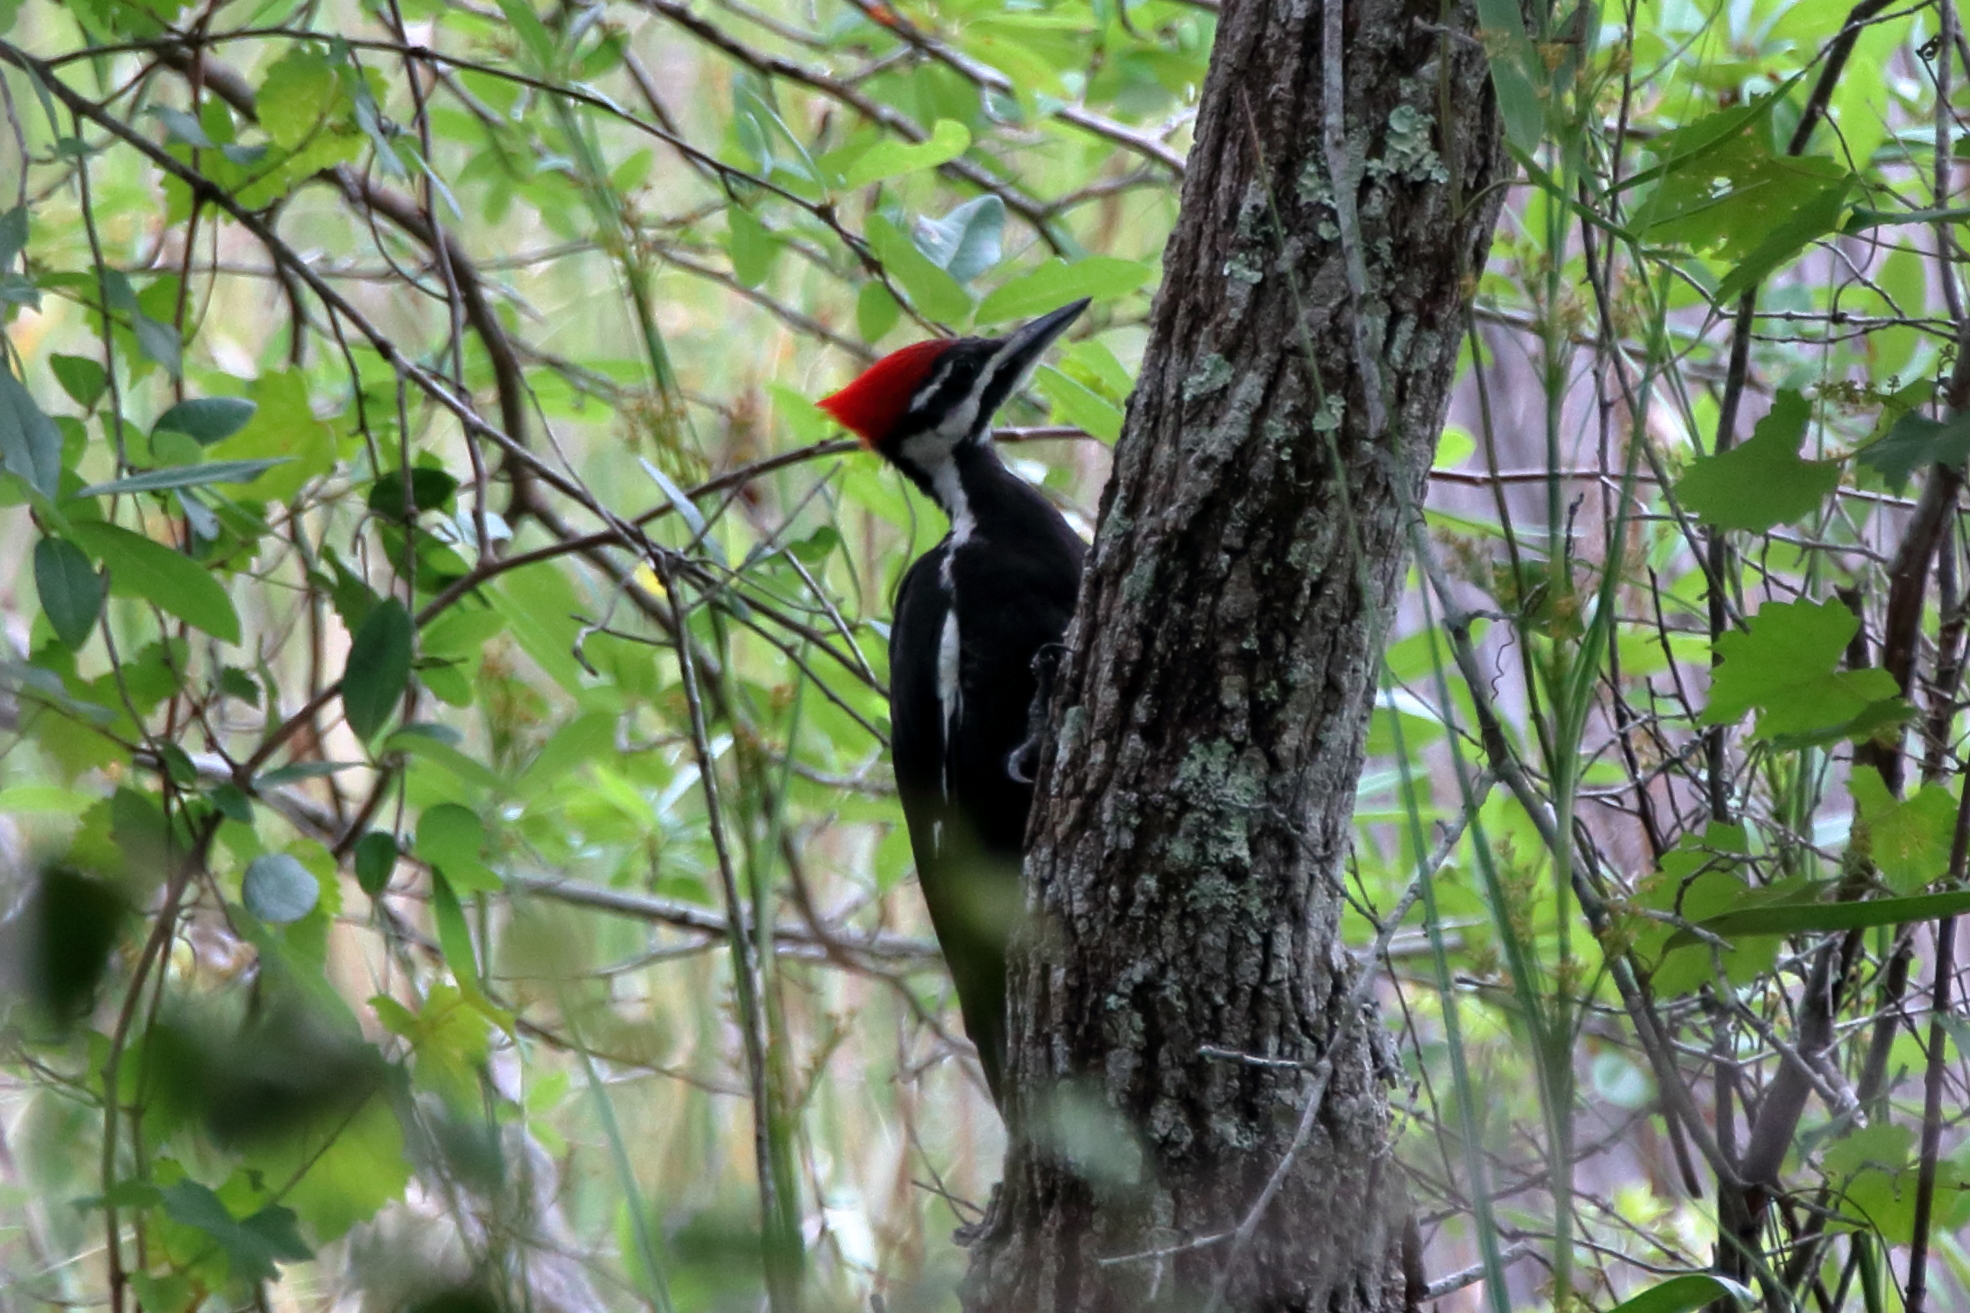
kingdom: Animalia
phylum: Chordata
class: Aves
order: Piciformes
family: Picidae
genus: Dryocopus
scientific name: Dryocopus pileatus
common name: Pileated woodpecker
